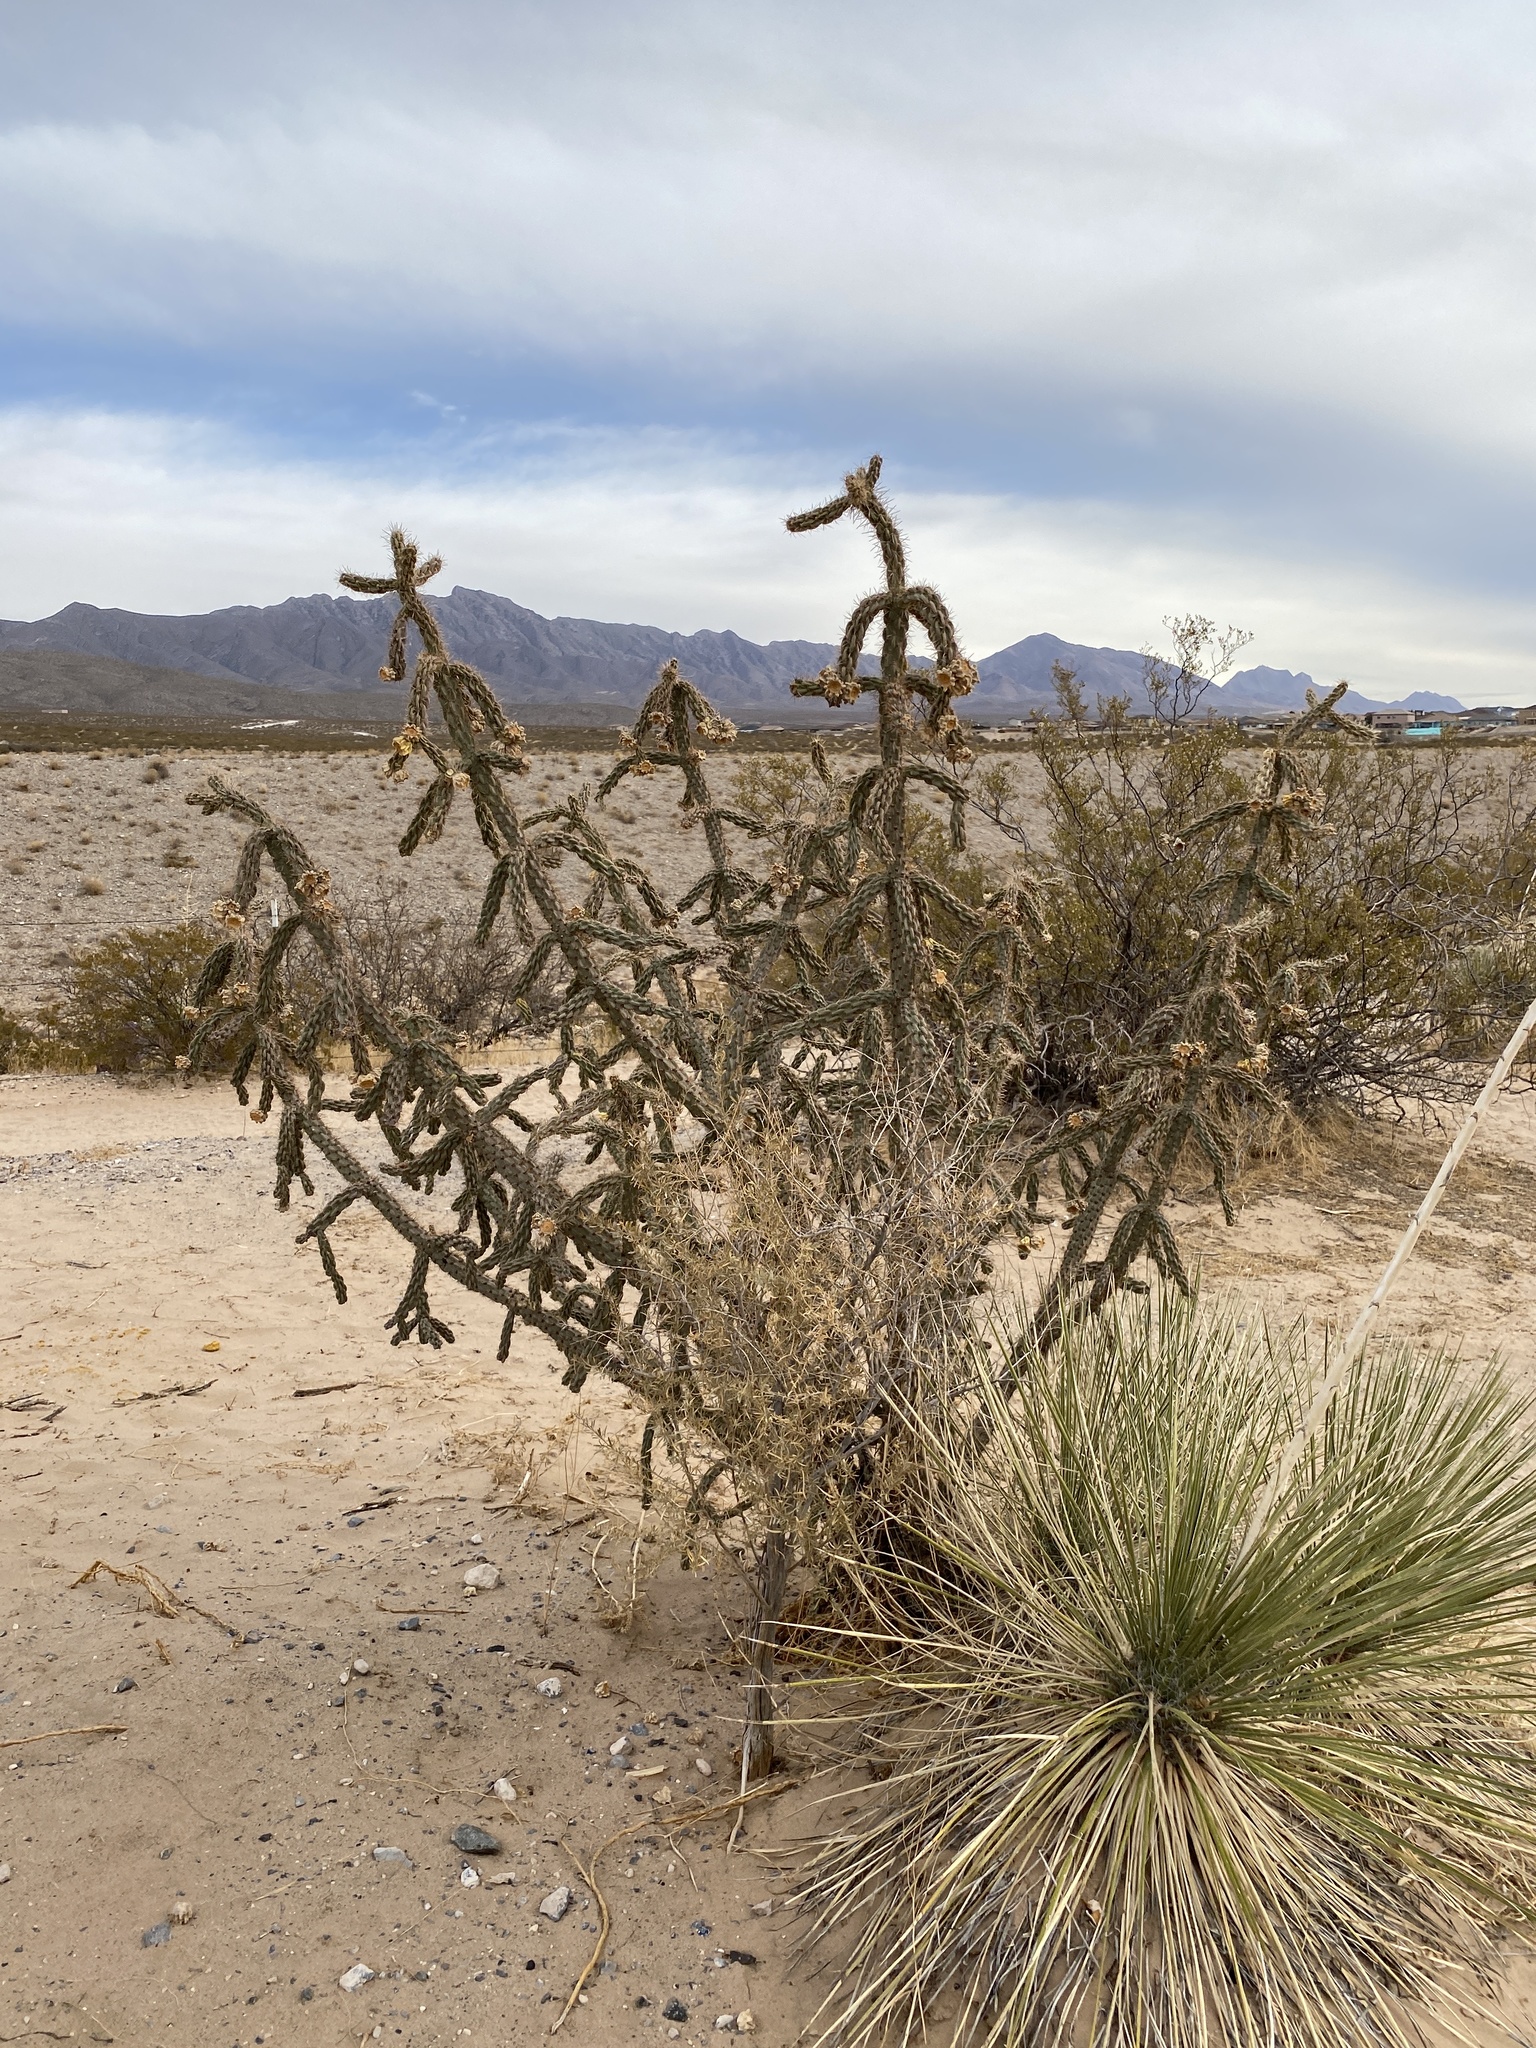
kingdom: Plantae
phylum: Tracheophyta
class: Magnoliopsida
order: Caryophyllales
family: Cactaceae
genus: Cylindropuntia
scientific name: Cylindropuntia imbricata
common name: Candelabrum cactus
